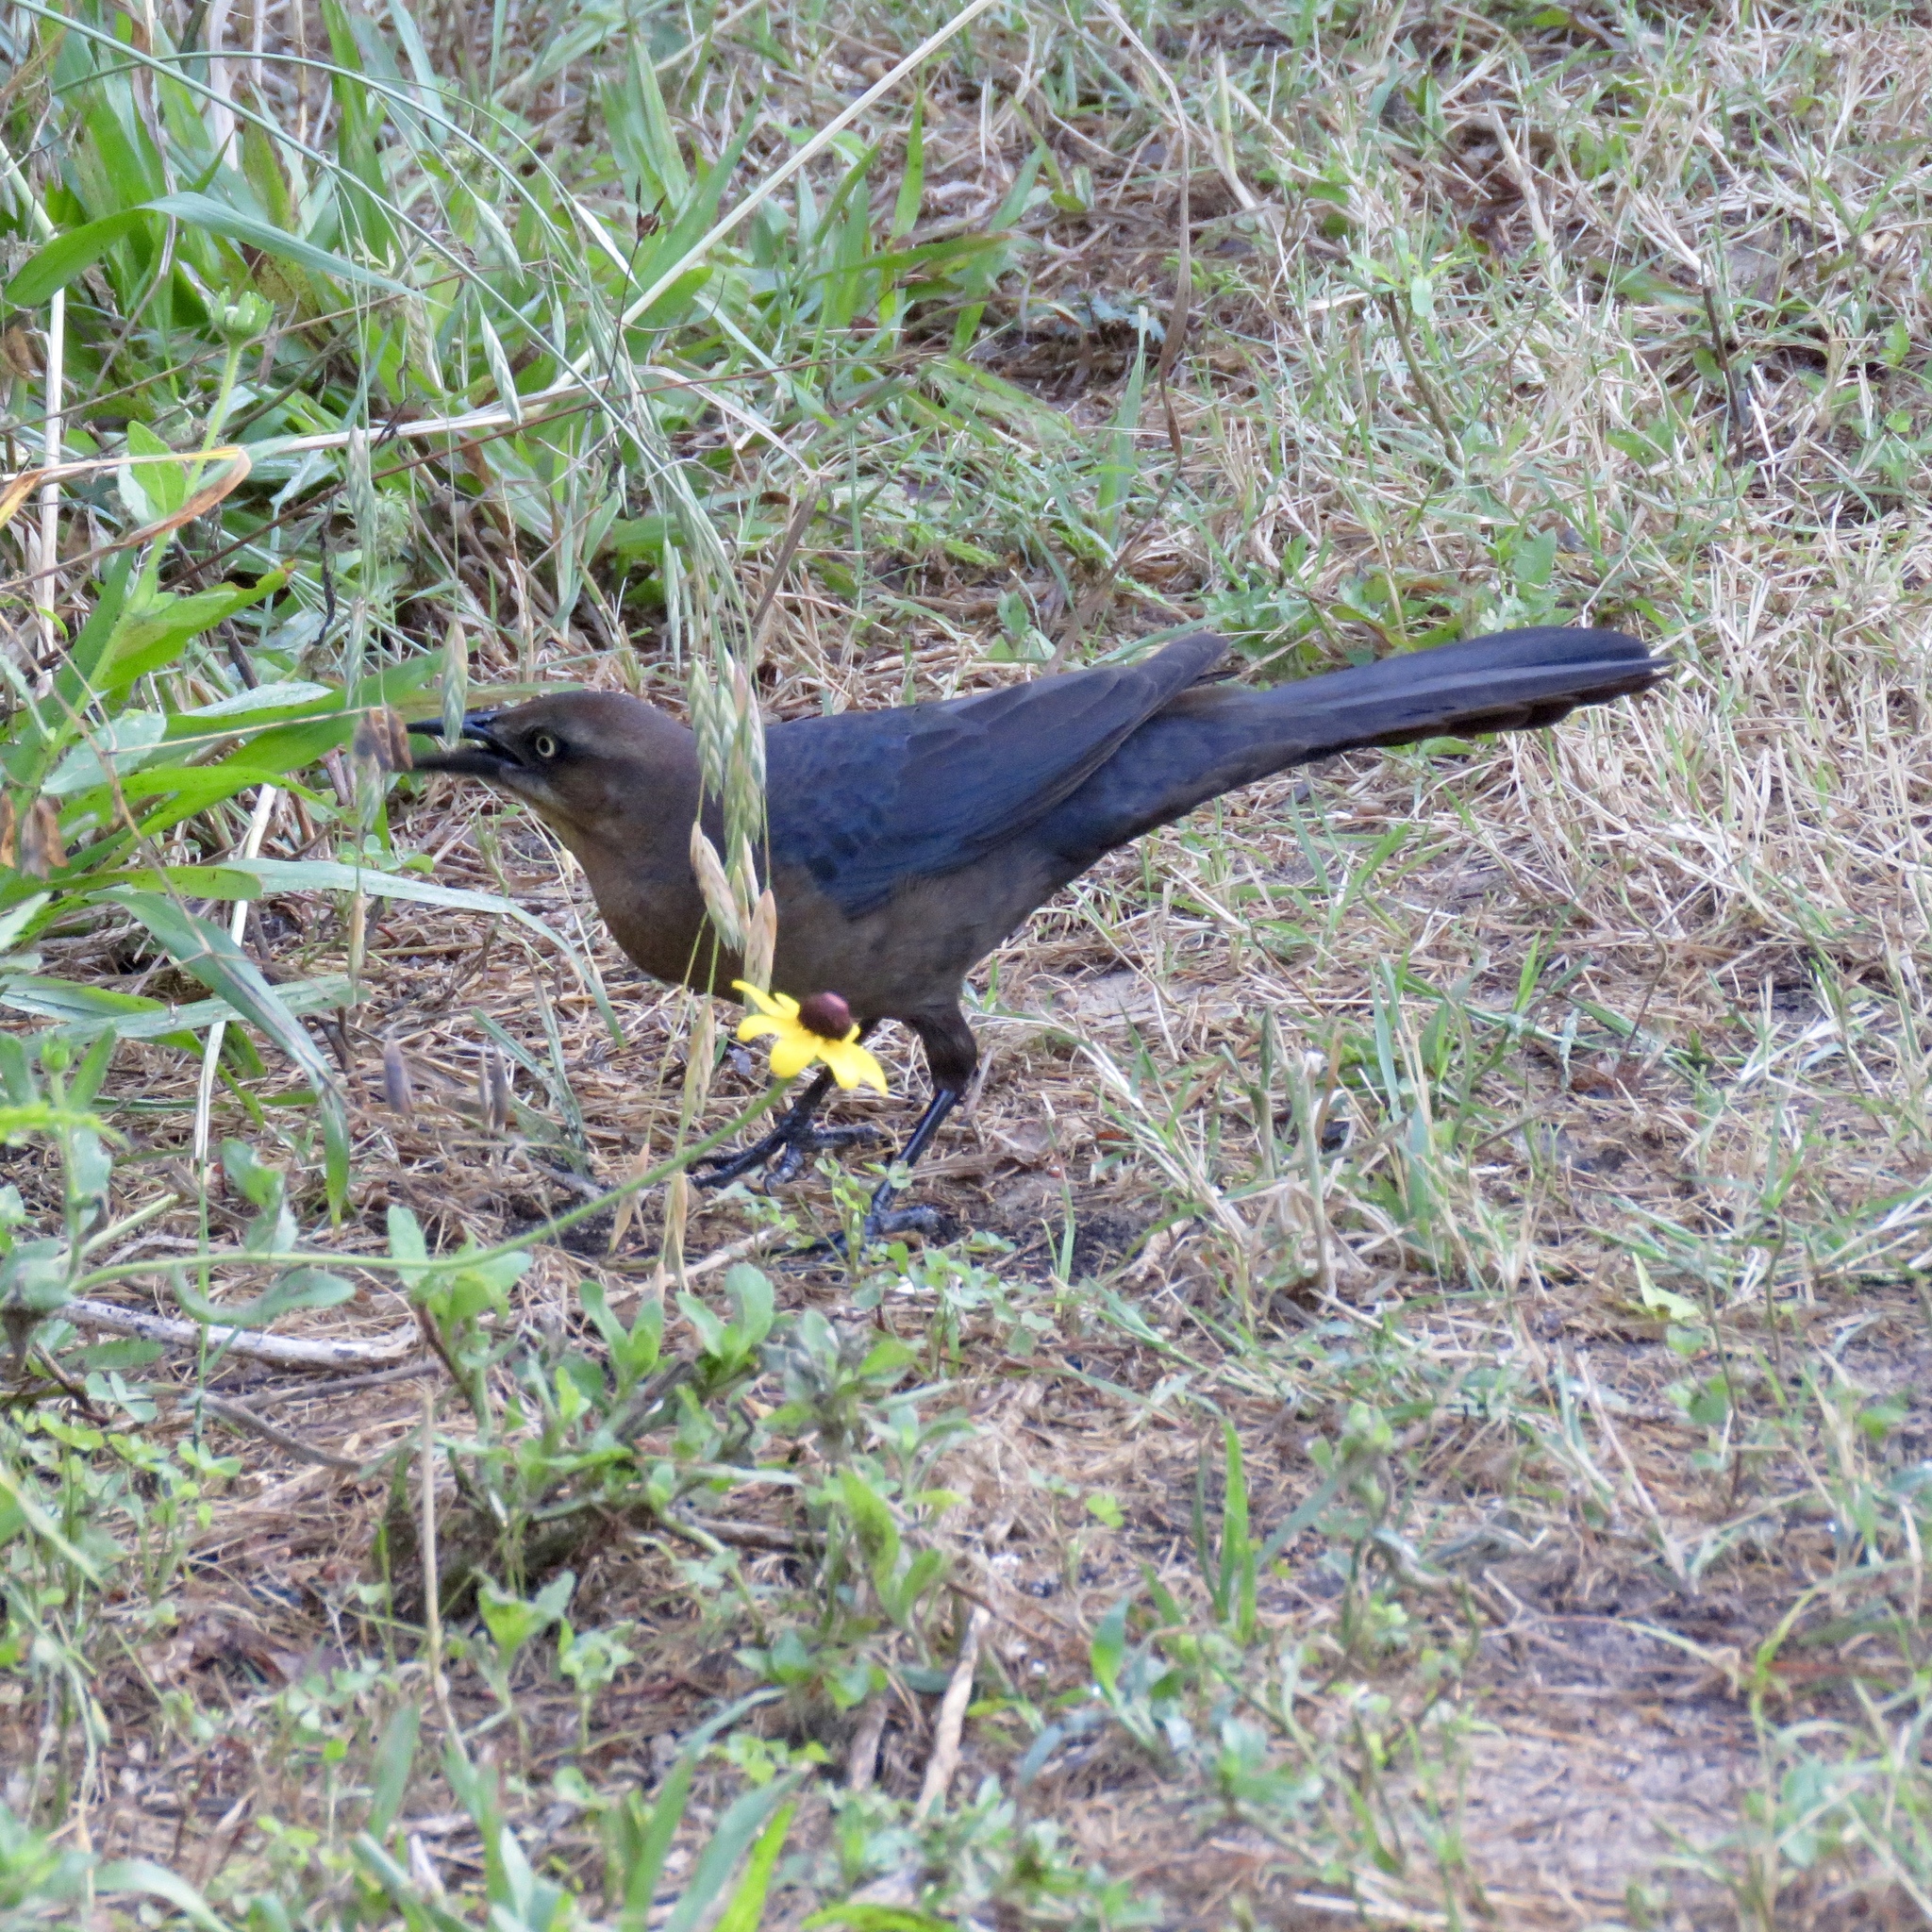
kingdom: Animalia
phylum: Chordata
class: Aves
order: Passeriformes
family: Icteridae
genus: Quiscalus
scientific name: Quiscalus mexicanus
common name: Great-tailed grackle
